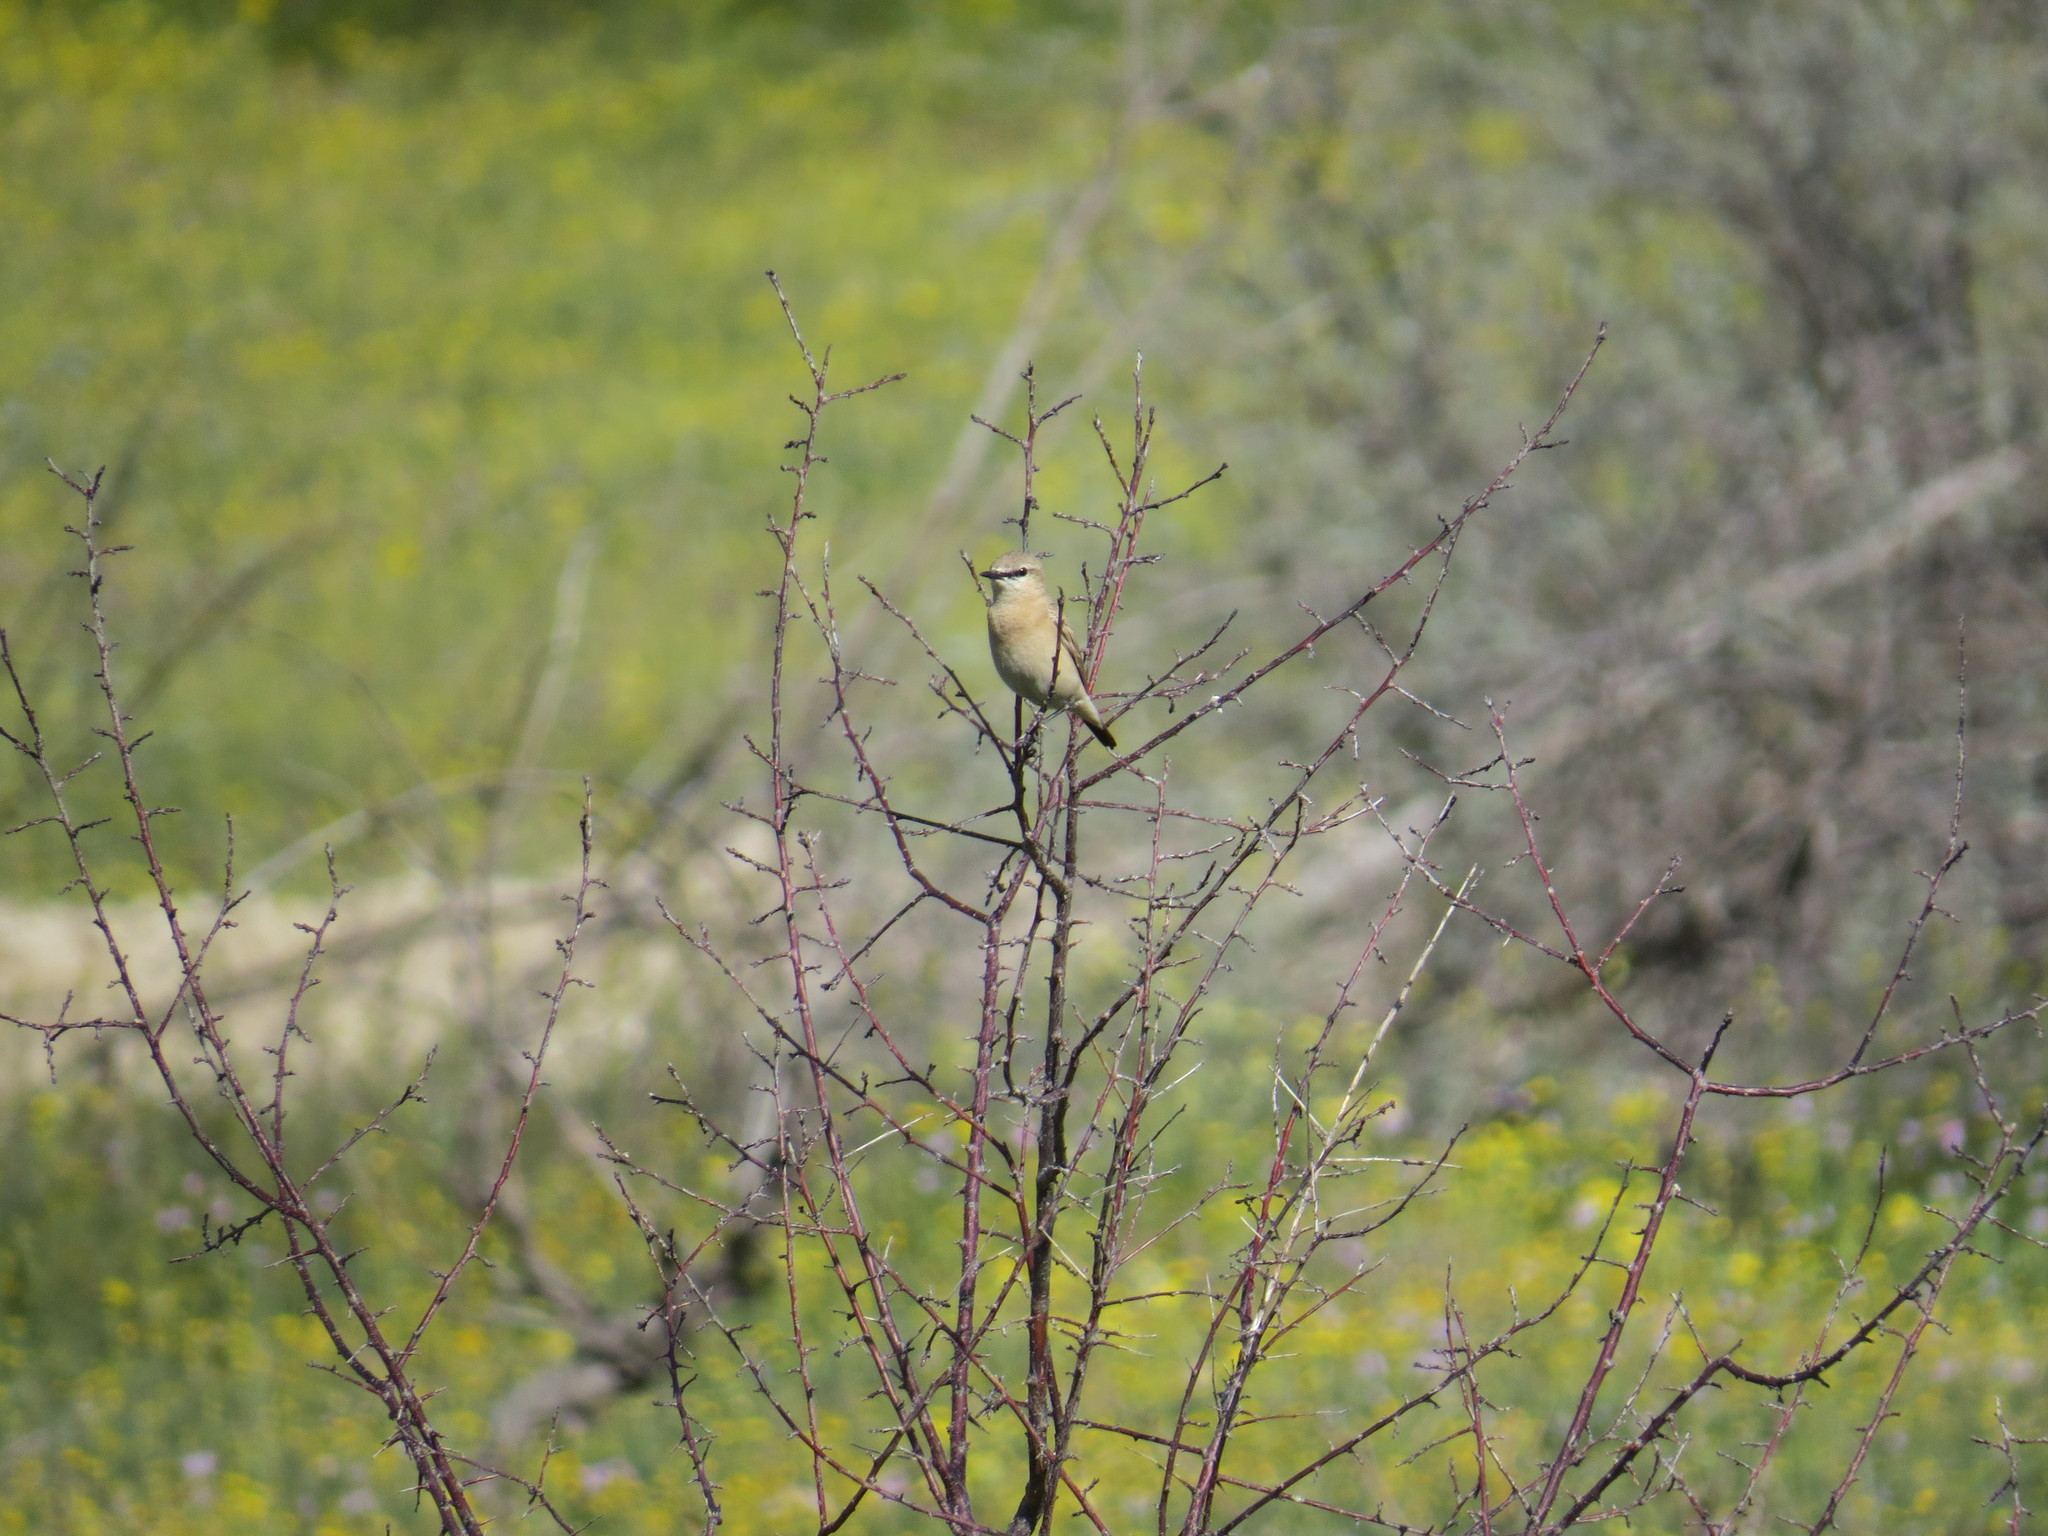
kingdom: Animalia
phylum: Chordata
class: Aves
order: Passeriformes
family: Muscicapidae
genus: Oenanthe
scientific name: Oenanthe isabellina
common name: Isabelline wheatear
